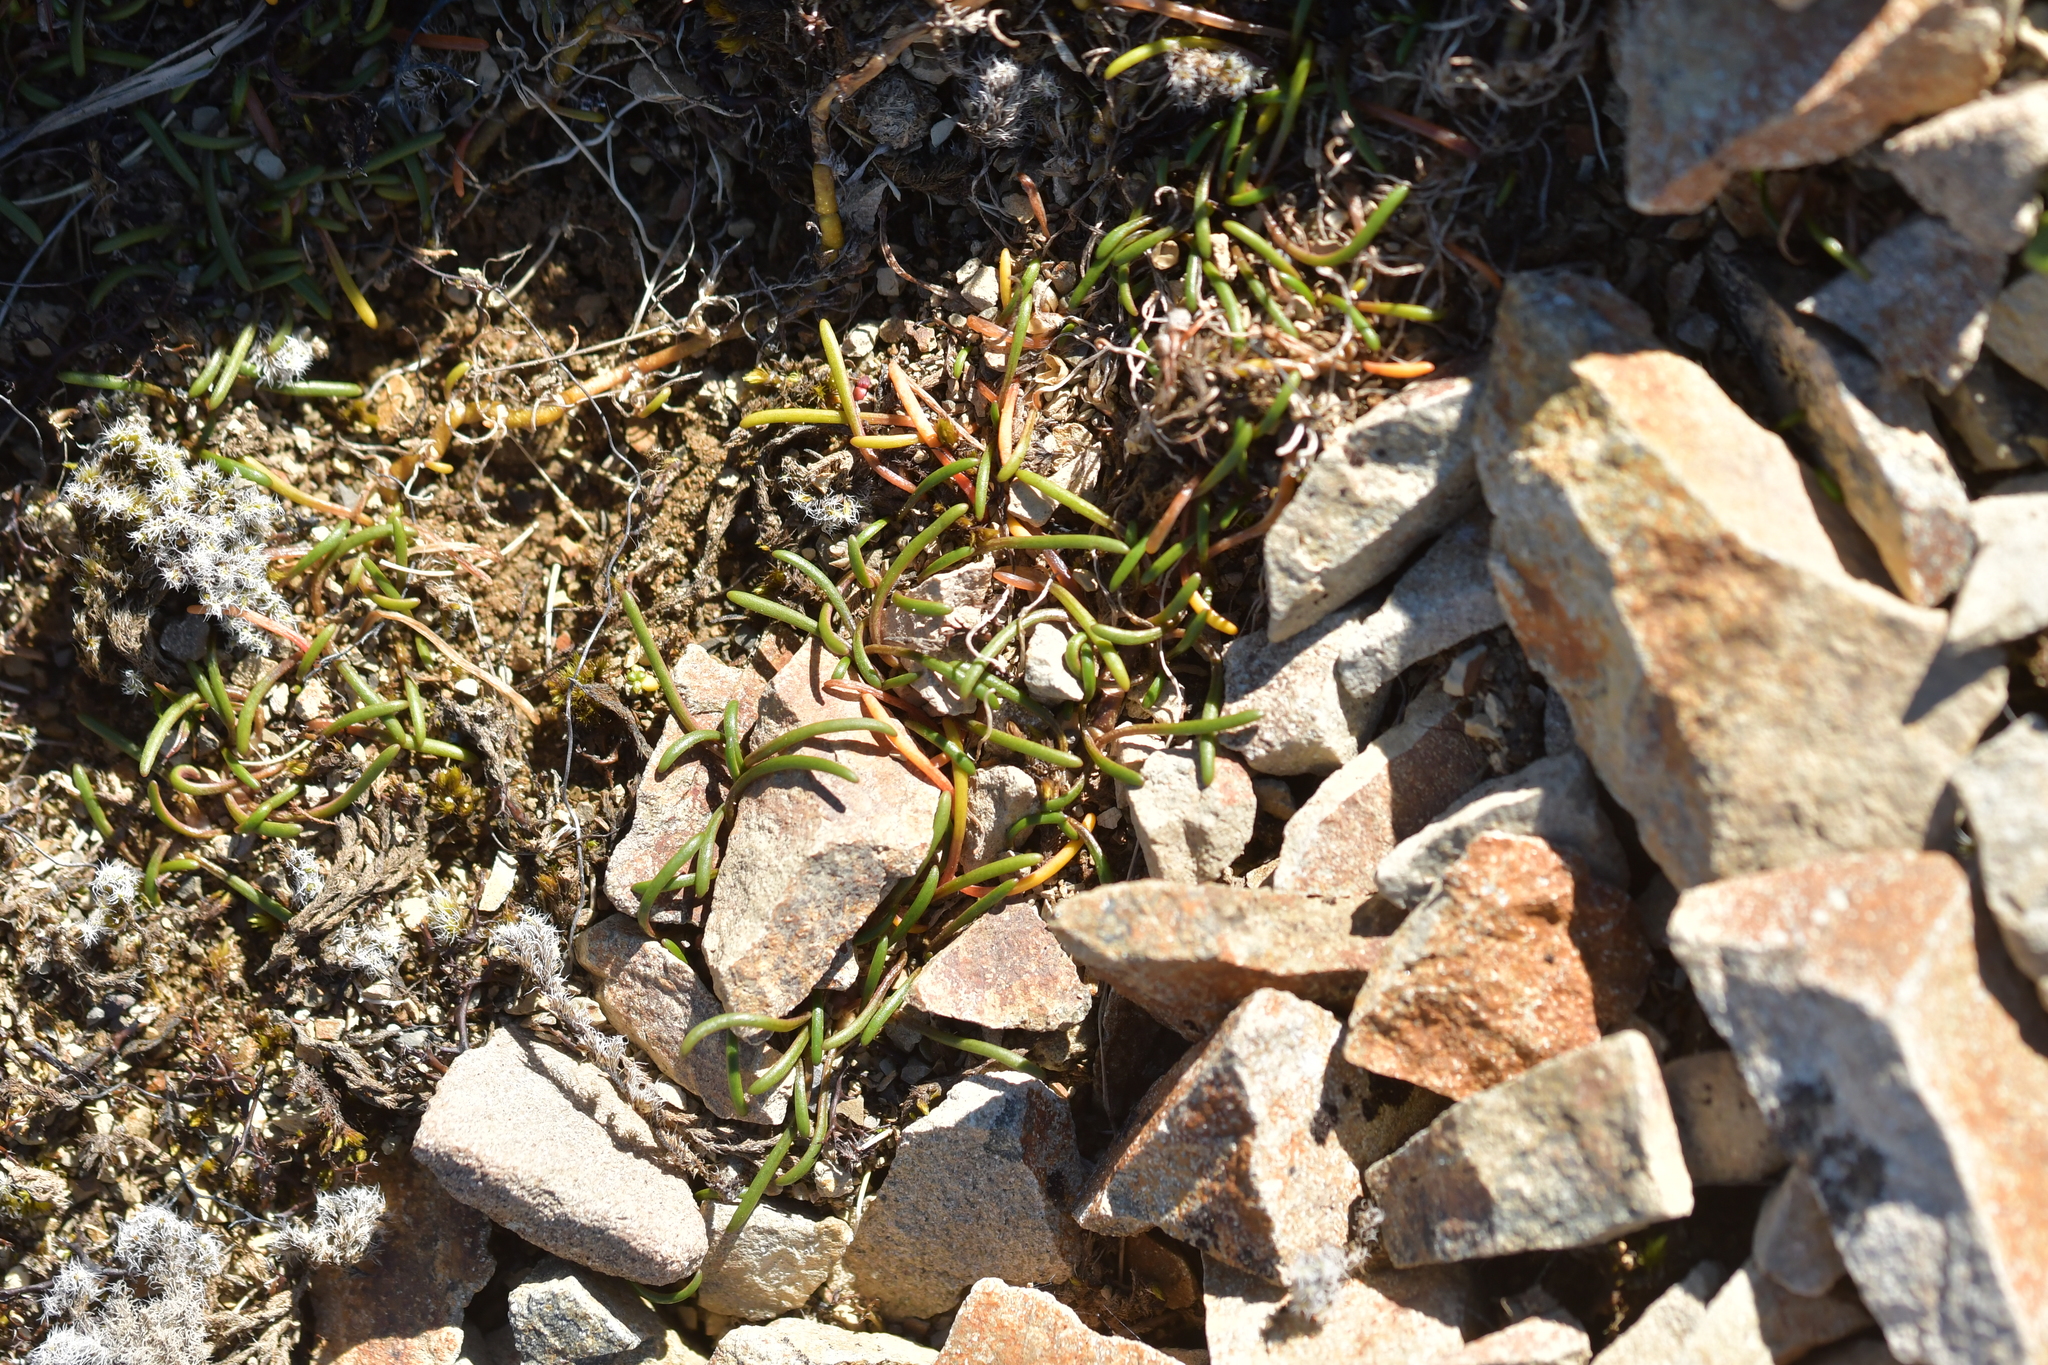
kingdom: Plantae
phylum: Tracheophyta
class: Magnoliopsida
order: Caryophyllales
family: Montiaceae
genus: Montia
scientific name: Montia calycina
